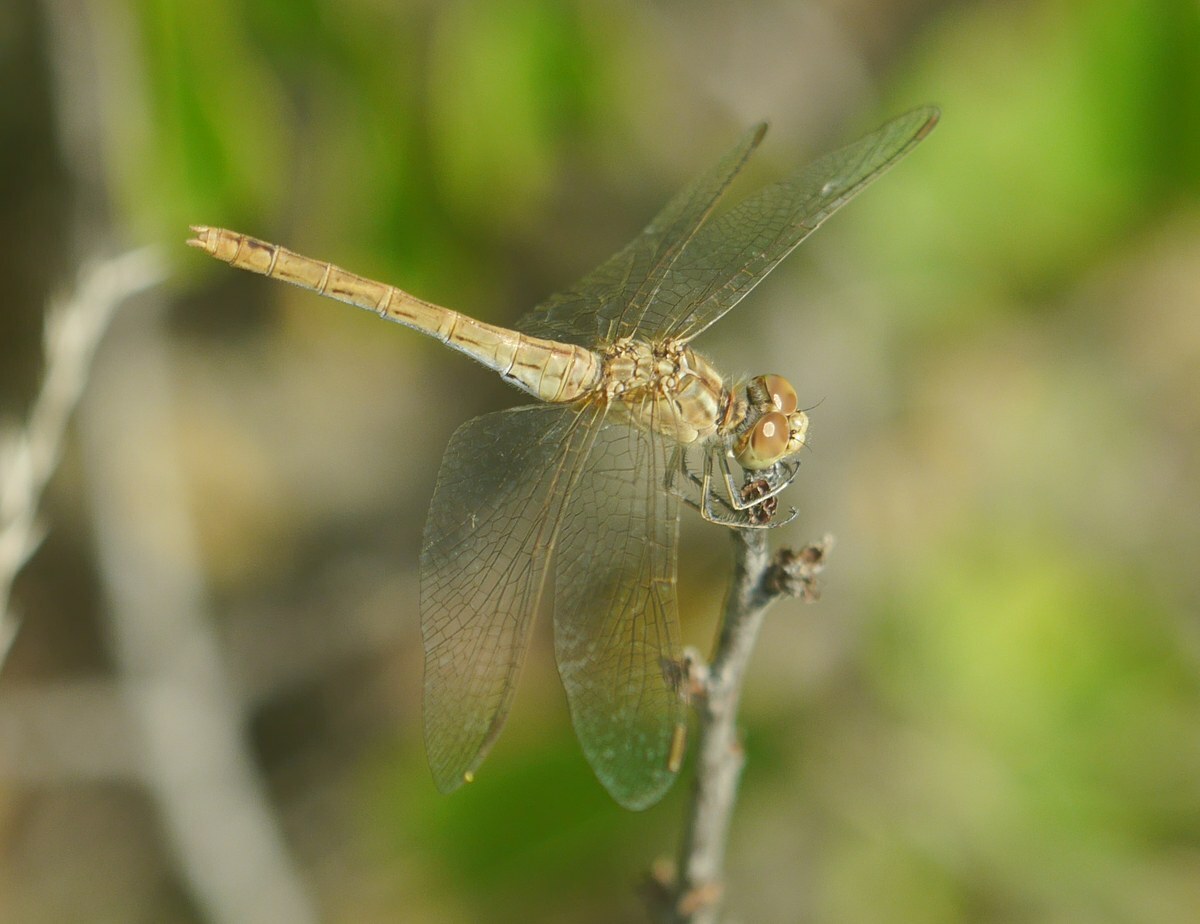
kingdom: Animalia
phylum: Arthropoda
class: Insecta
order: Odonata
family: Libellulidae
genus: Sympetrum
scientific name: Sympetrum meridionale
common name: Southern darter
